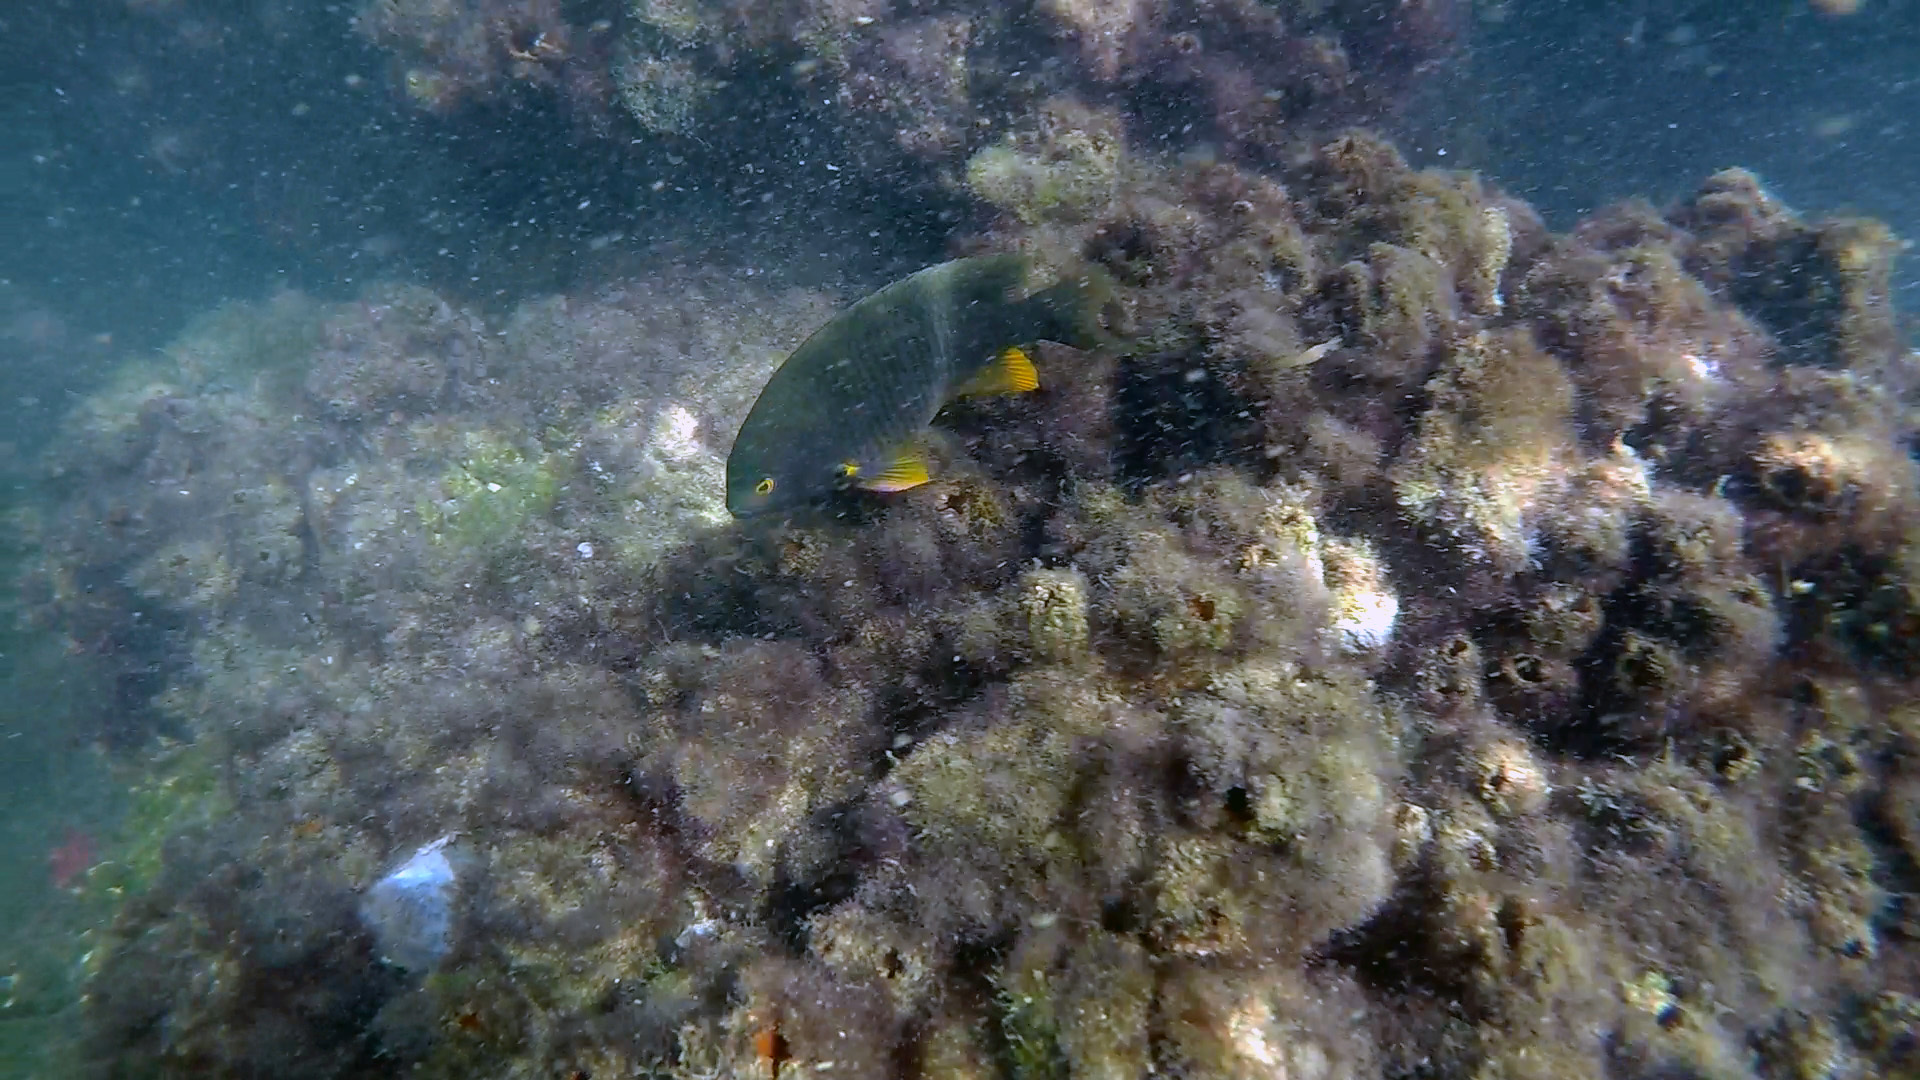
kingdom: Animalia
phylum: Chordata
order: Perciformes
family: Pomacentridae
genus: Stegastes
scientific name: Stegastes gascoynei
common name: Coral sea gregory
